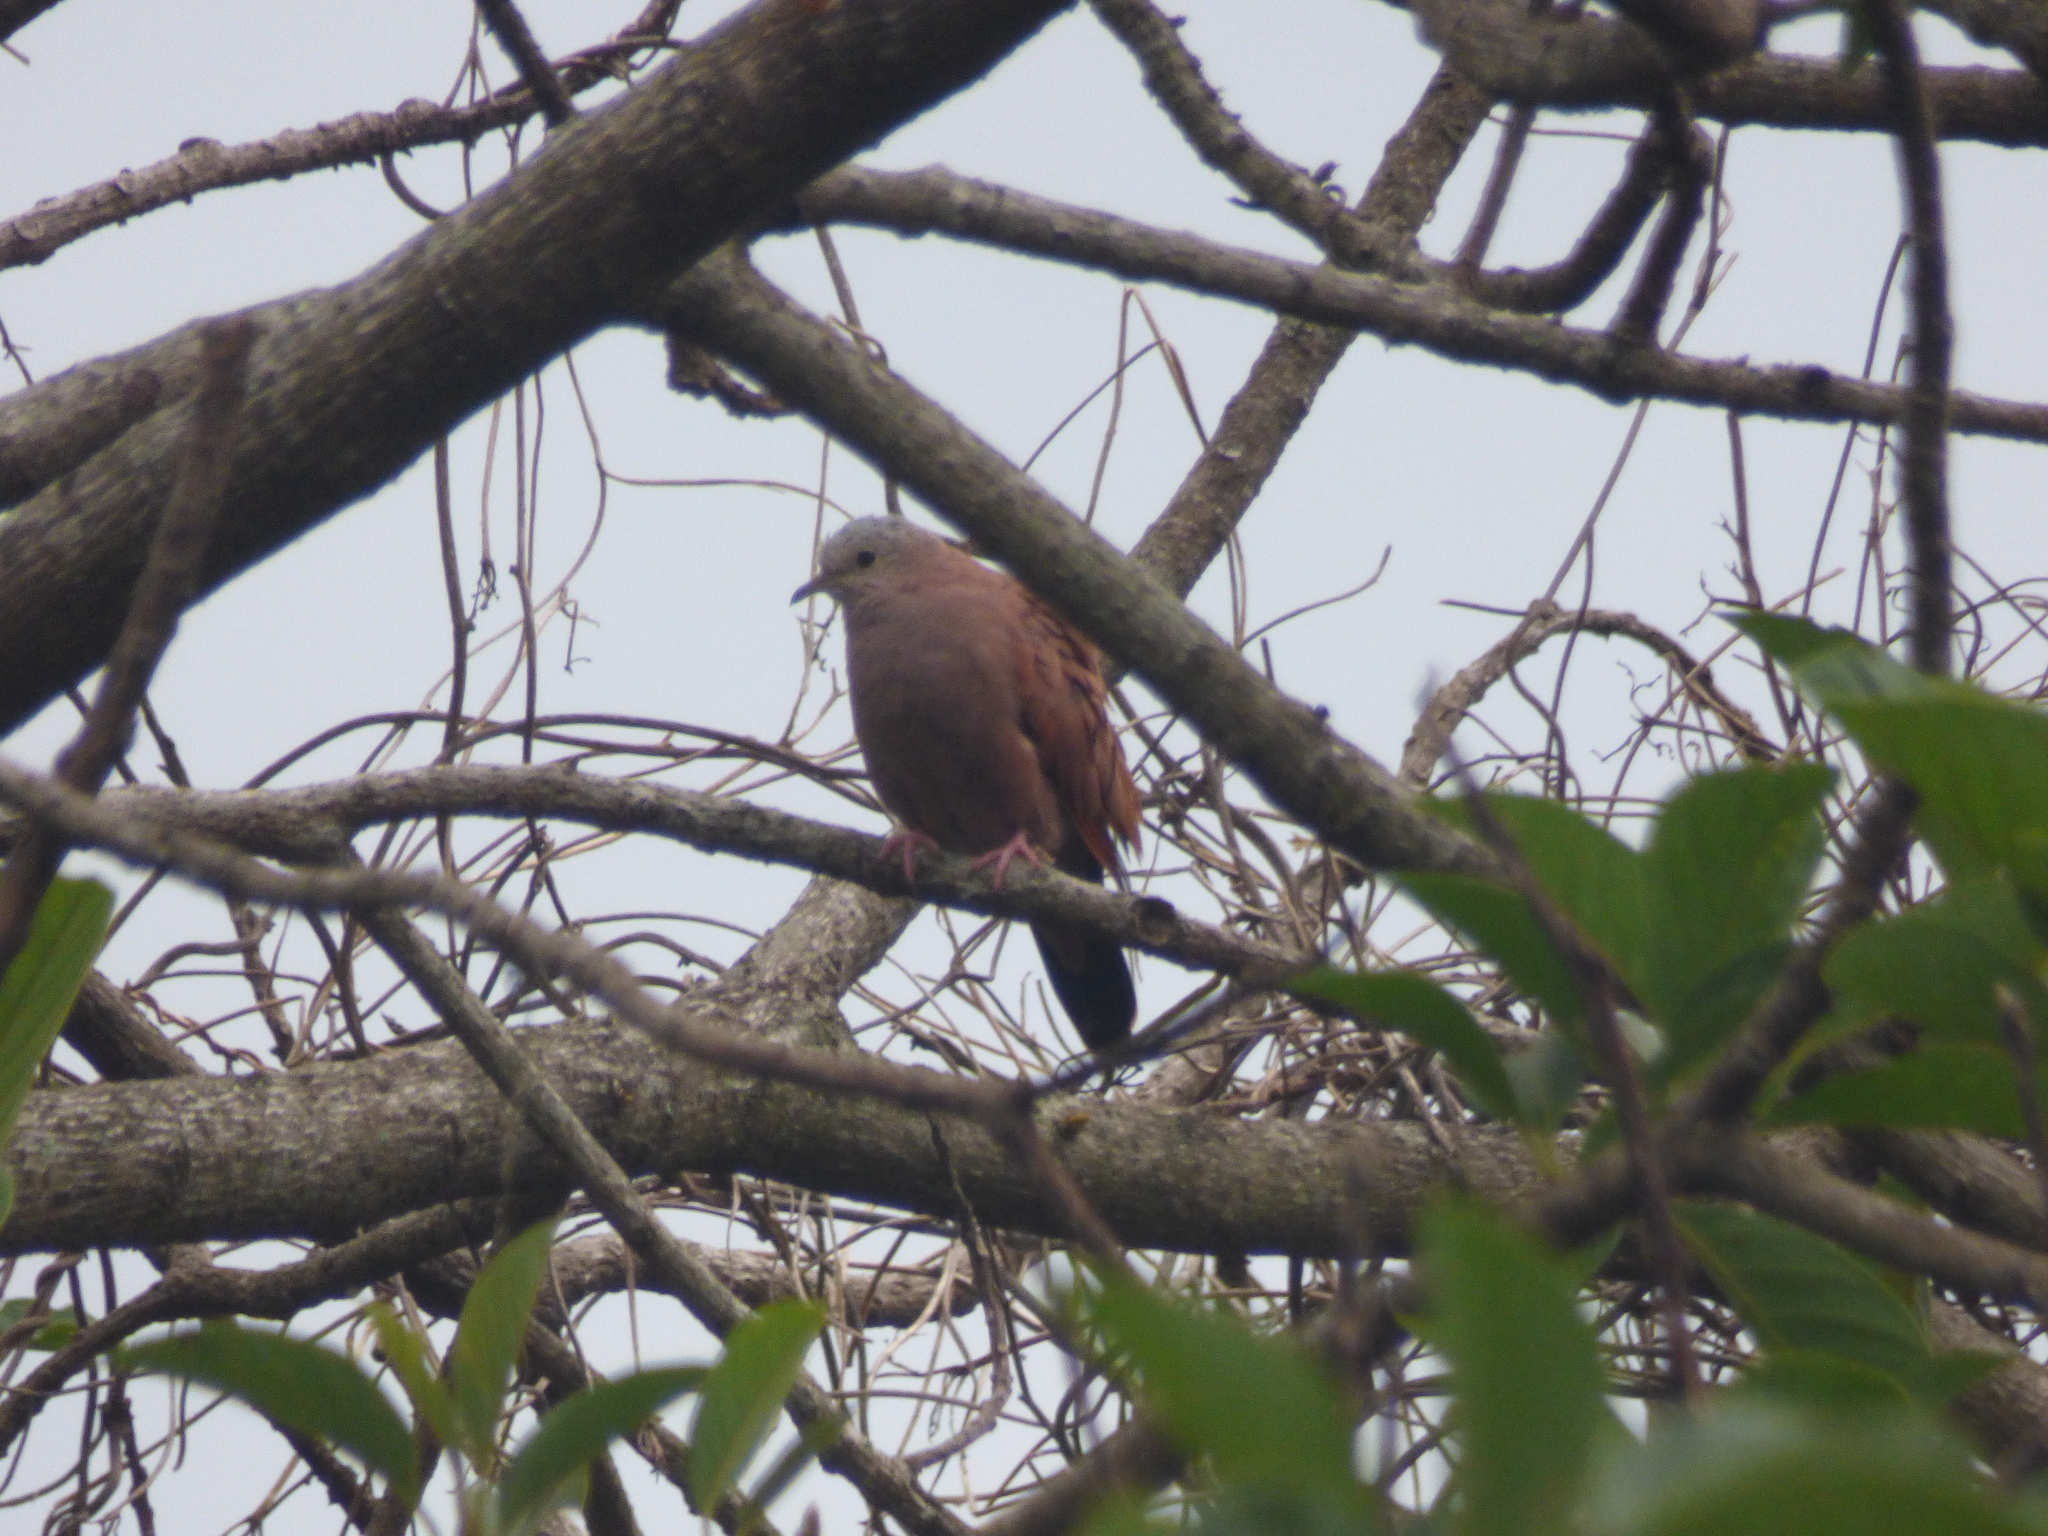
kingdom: Animalia
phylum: Chordata
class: Aves
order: Columbiformes
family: Columbidae
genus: Columbina
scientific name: Columbina talpacoti
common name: Ruddy ground dove
